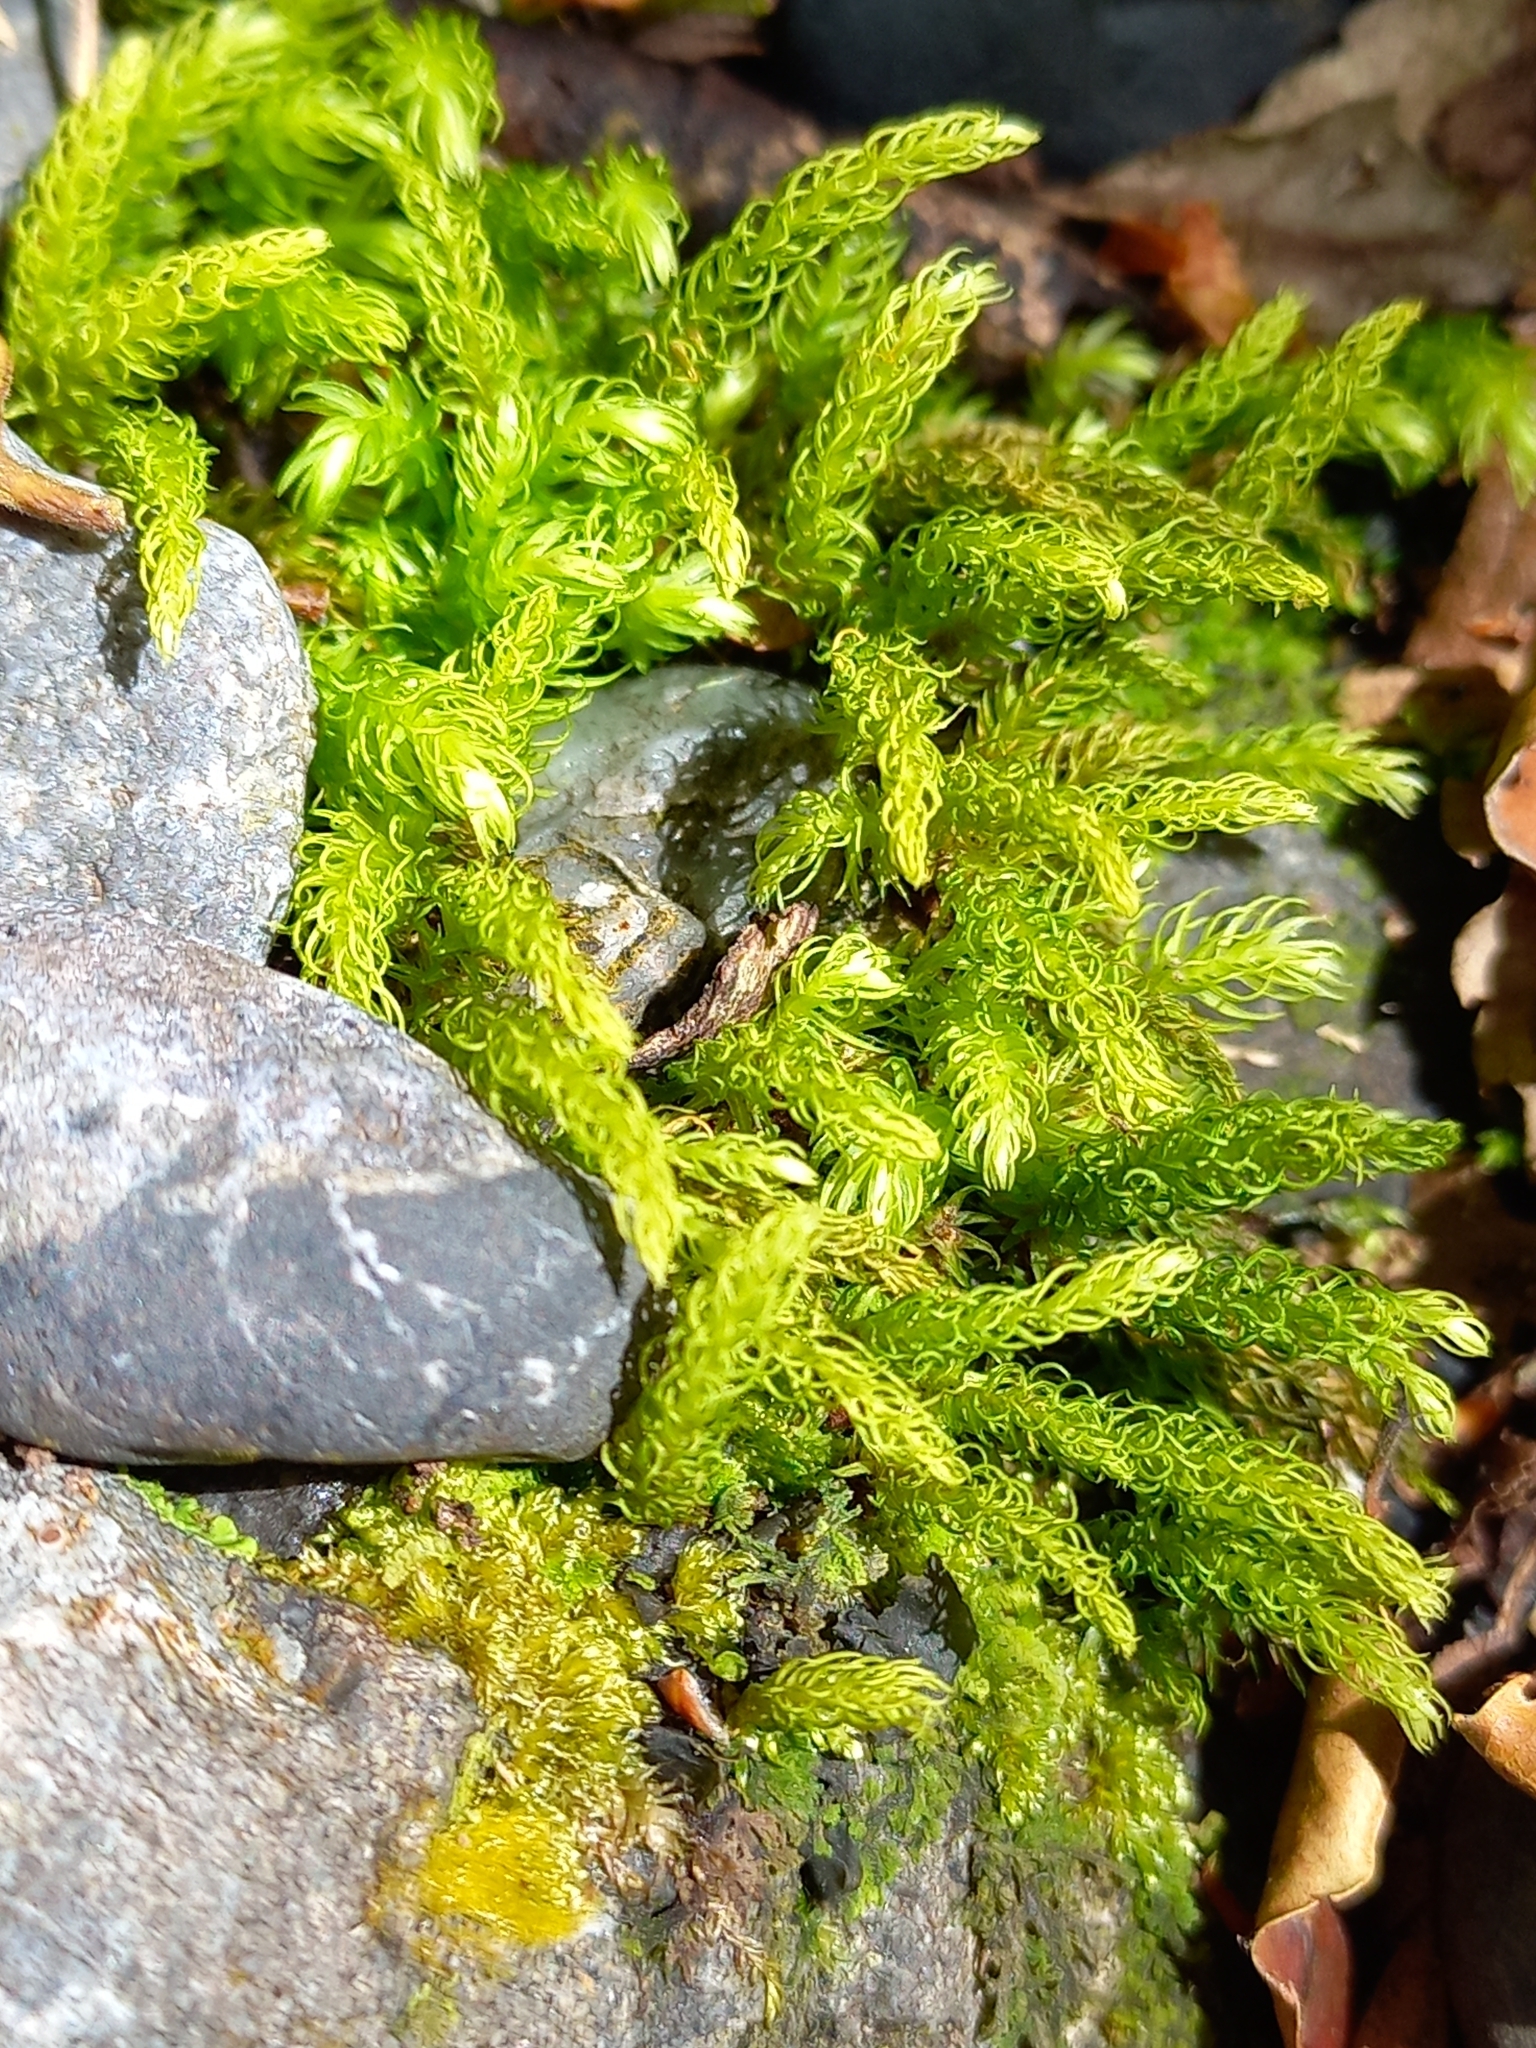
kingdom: Plantae
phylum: Bryophyta
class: Bryopsida
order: Aulacomniales
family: Aulacomniaceae
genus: Hymenodontopsis
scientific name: Hymenodontopsis mnioides
